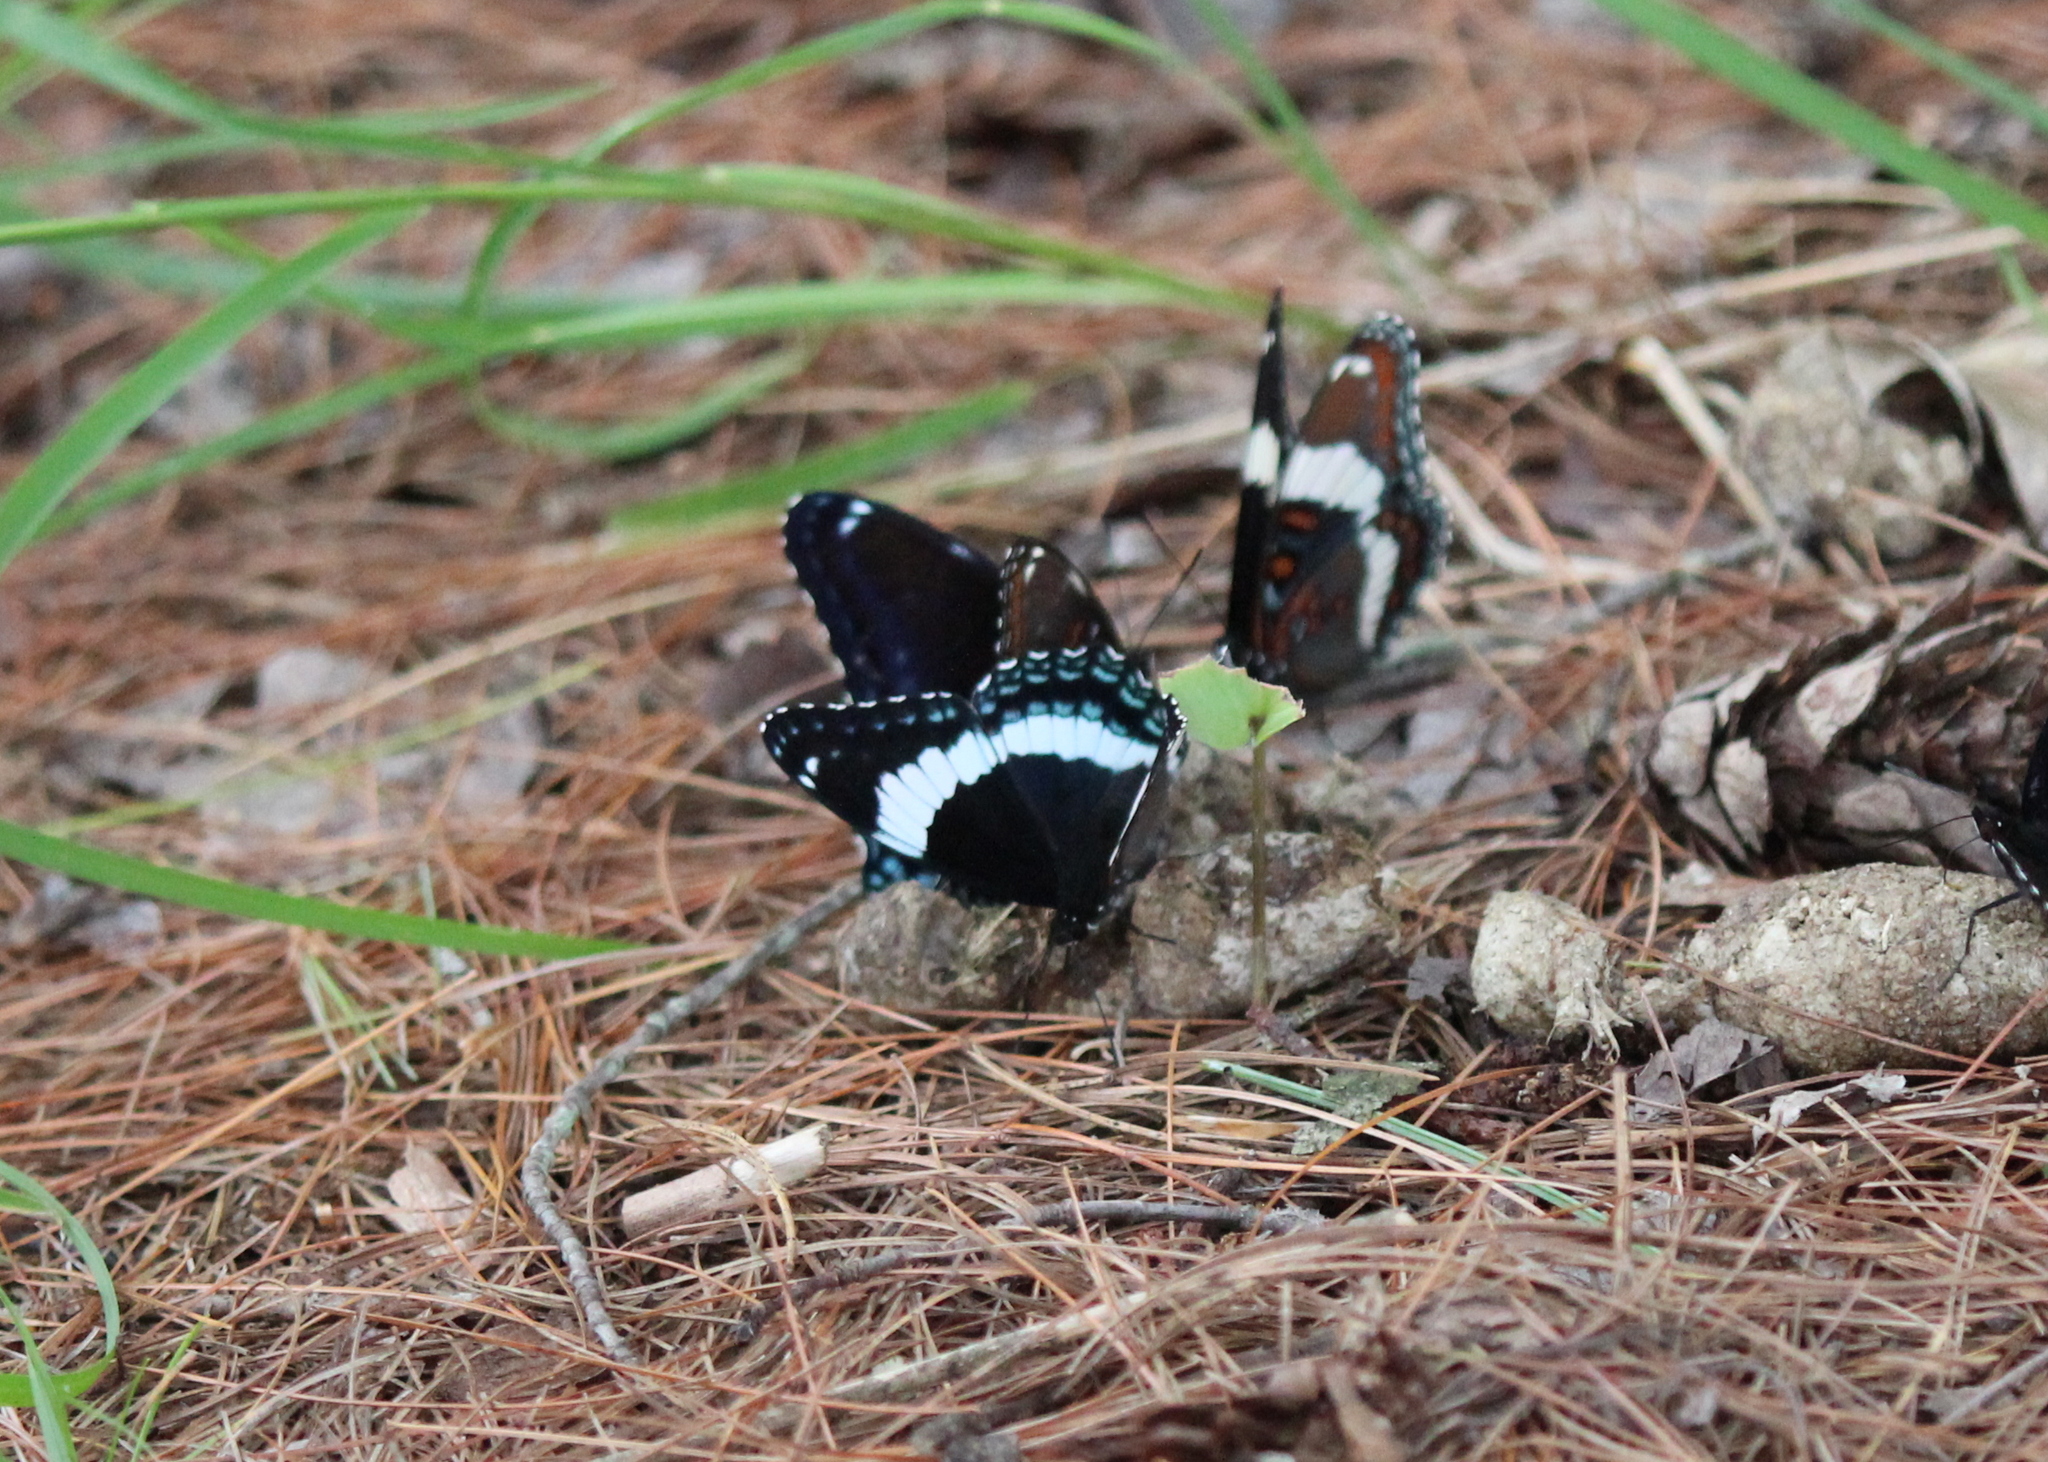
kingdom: Animalia
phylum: Arthropoda
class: Insecta
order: Lepidoptera
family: Nymphalidae
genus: Limenitis
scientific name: Limenitis arthemis
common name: Red-spotted admiral
